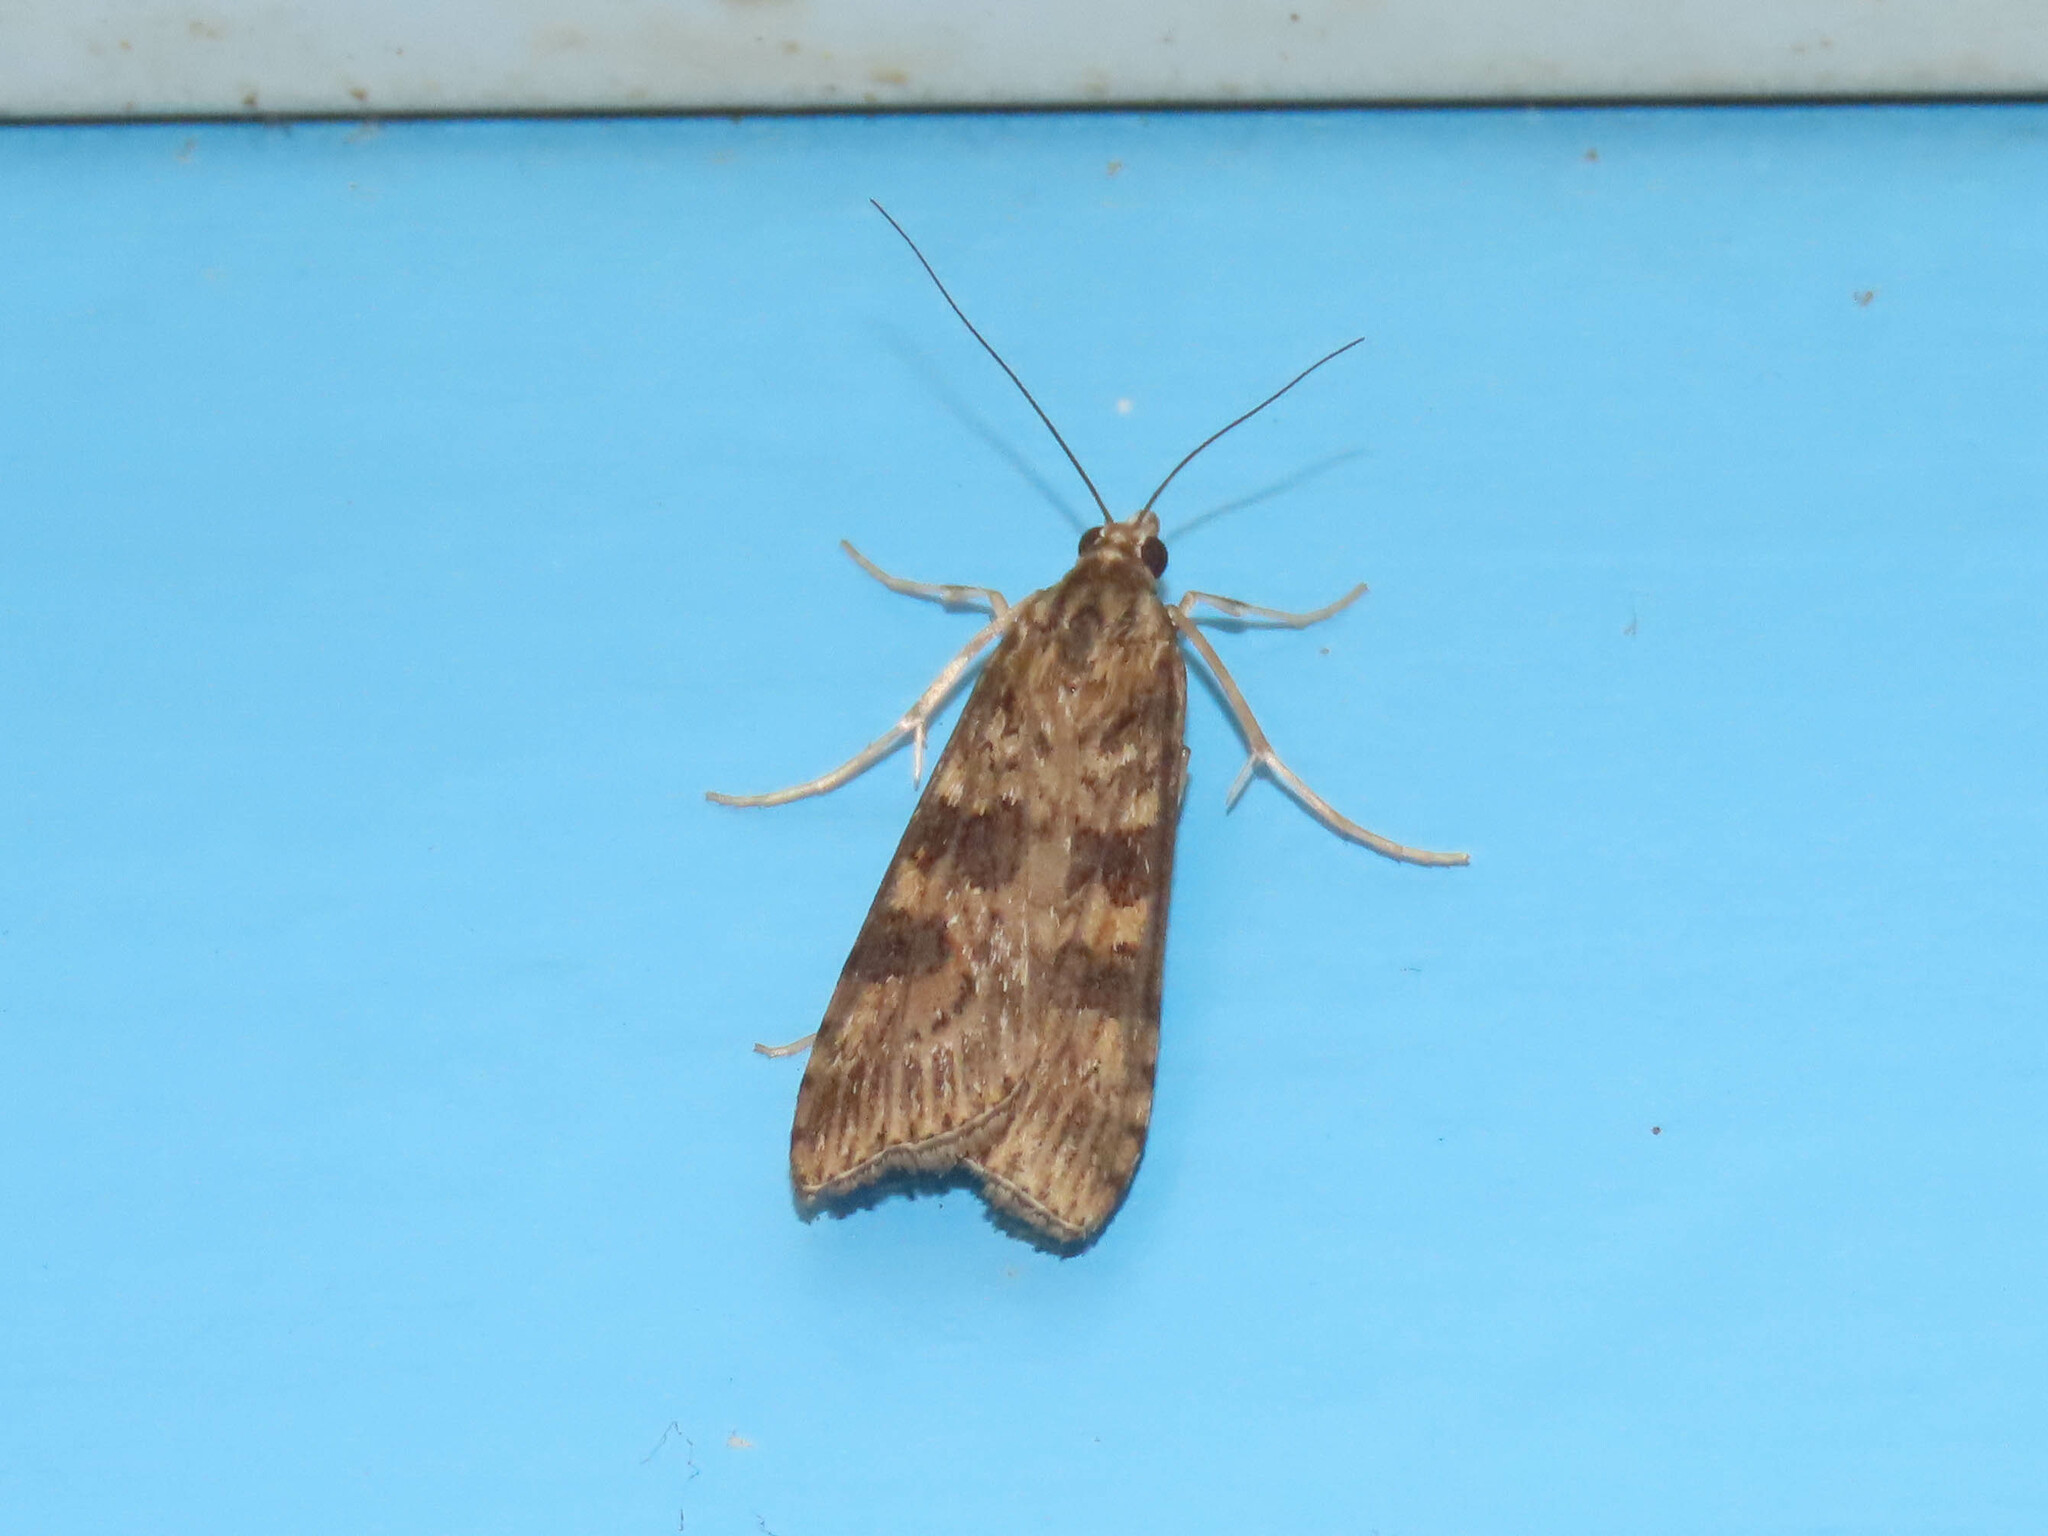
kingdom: Animalia
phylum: Arthropoda
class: Insecta
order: Lepidoptera
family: Crambidae
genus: Nomophila
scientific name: Nomophila nearctica
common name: American rush veneer
